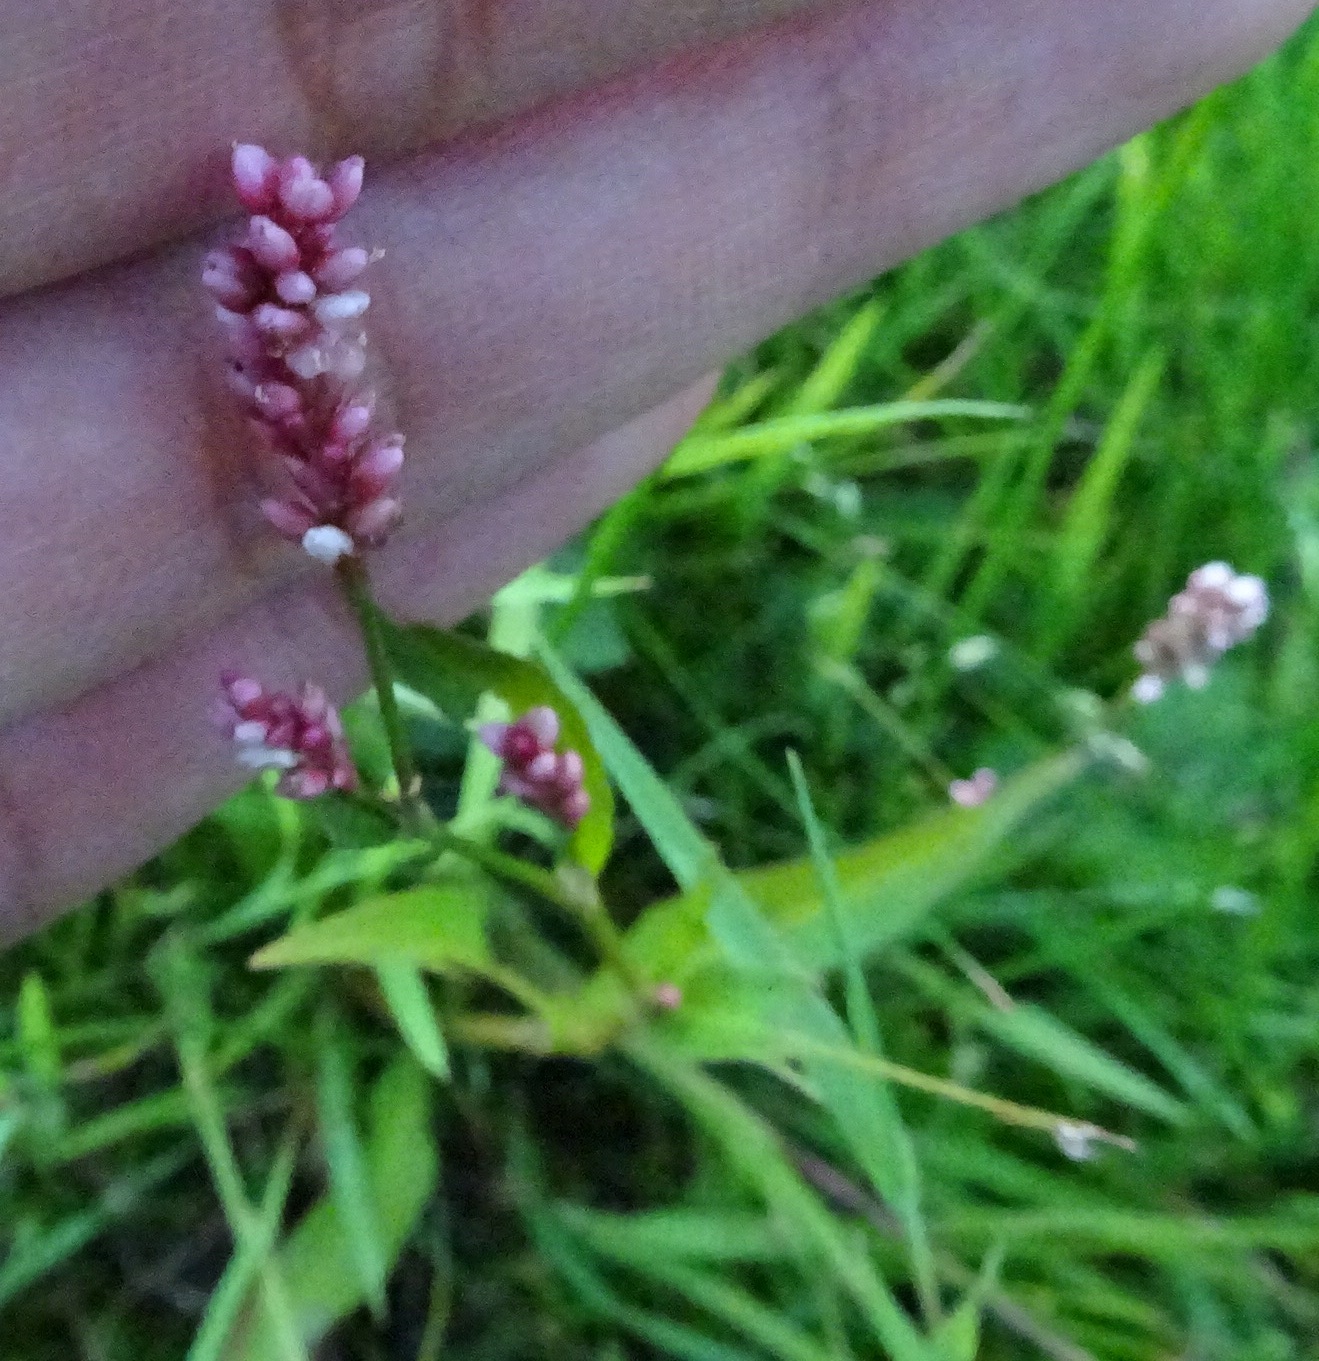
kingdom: Plantae
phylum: Tracheophyta
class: Magnoliopsida
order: Caryophyllales
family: Polygonaceae
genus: Persicaria
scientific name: Persicaria maculosa
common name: Redshank
